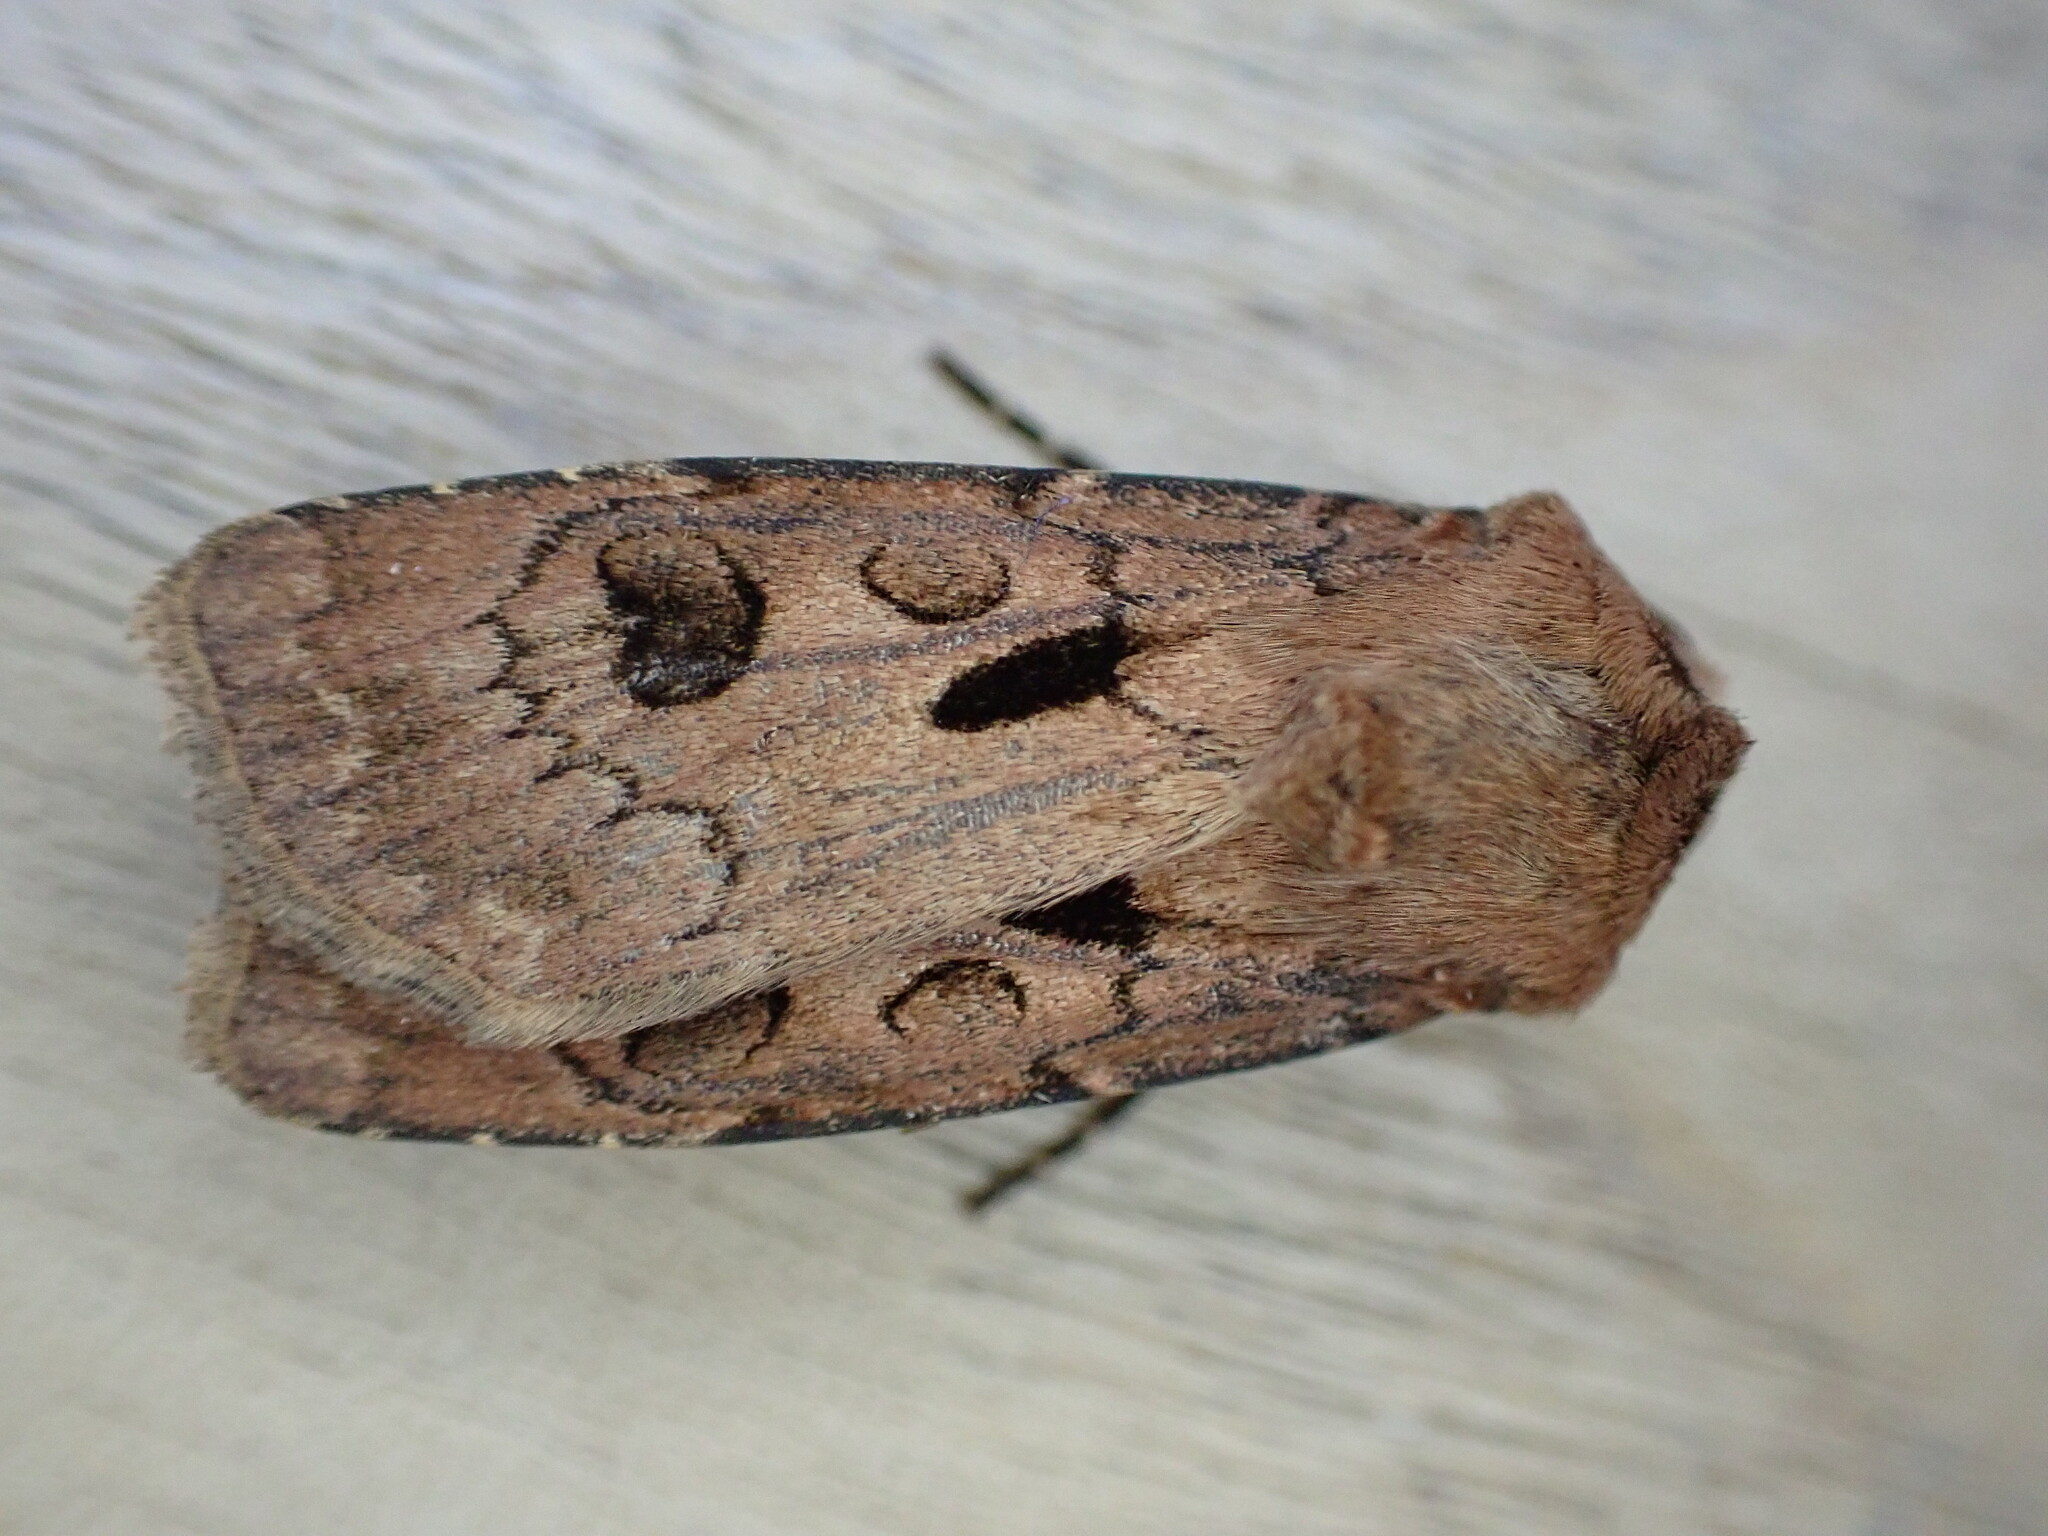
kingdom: Animalia
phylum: Arthropoda
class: Insecta
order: Lepidoptera
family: Noctuidae
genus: Agrotis
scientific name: Agrotis exclamationis
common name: Heart and dart
